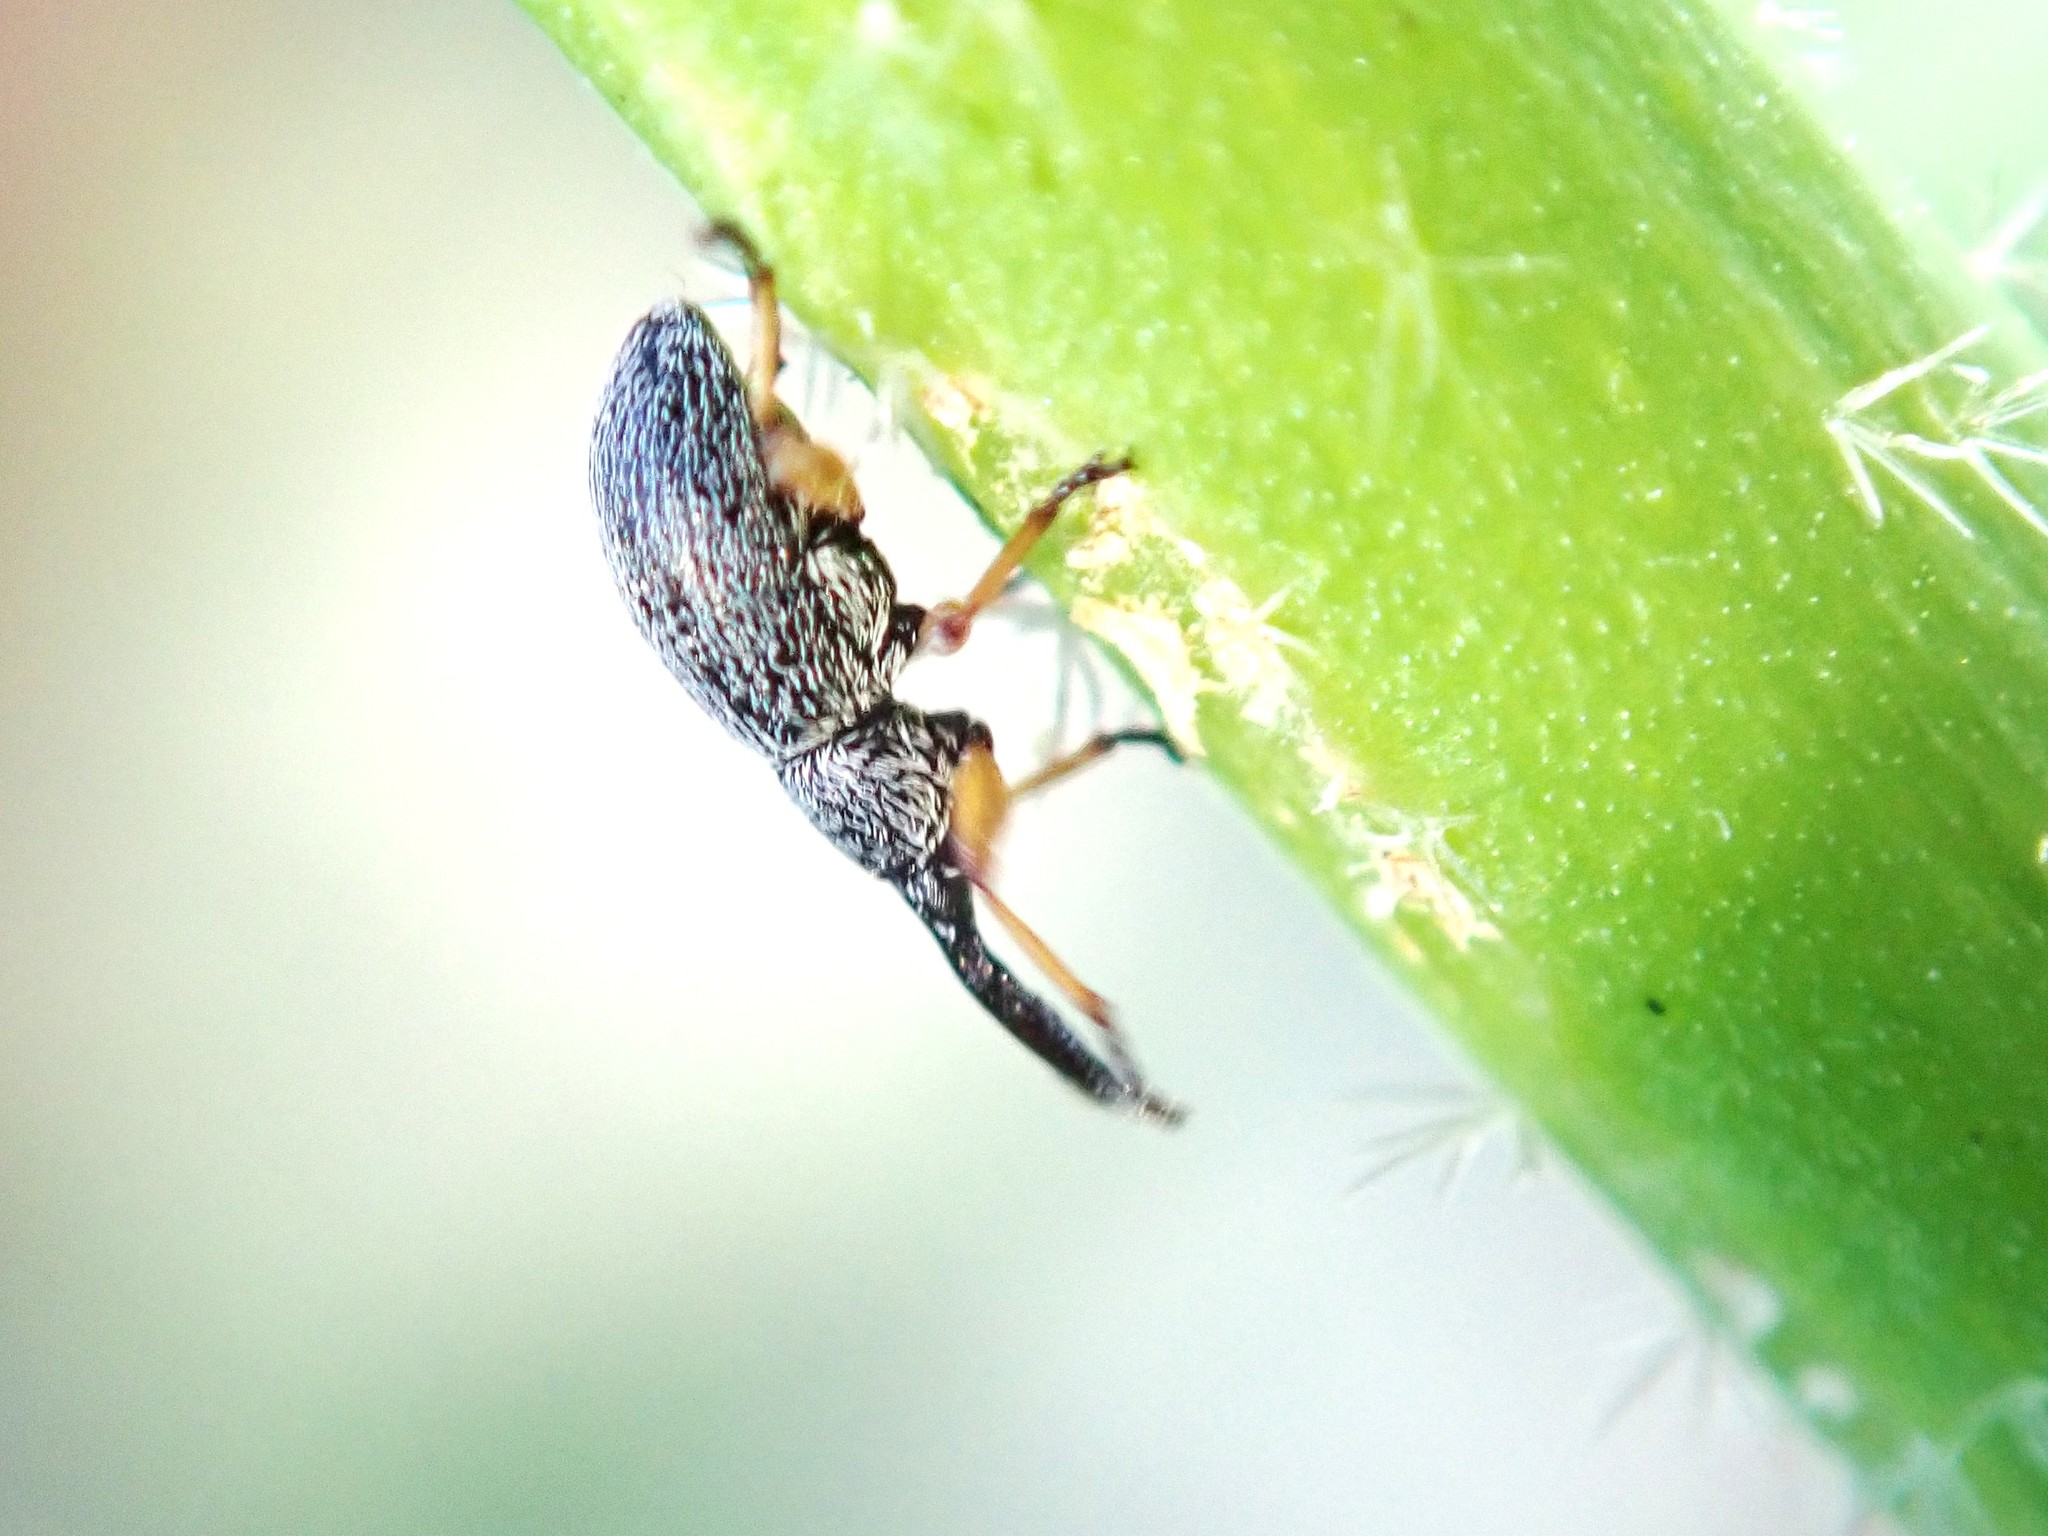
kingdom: Animalia
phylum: Arthropoda
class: Insecta
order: Coleoptera
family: Brentidae
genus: Rhopalapion
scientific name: Rhopalapion longirostre
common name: Hollyhock weevil
